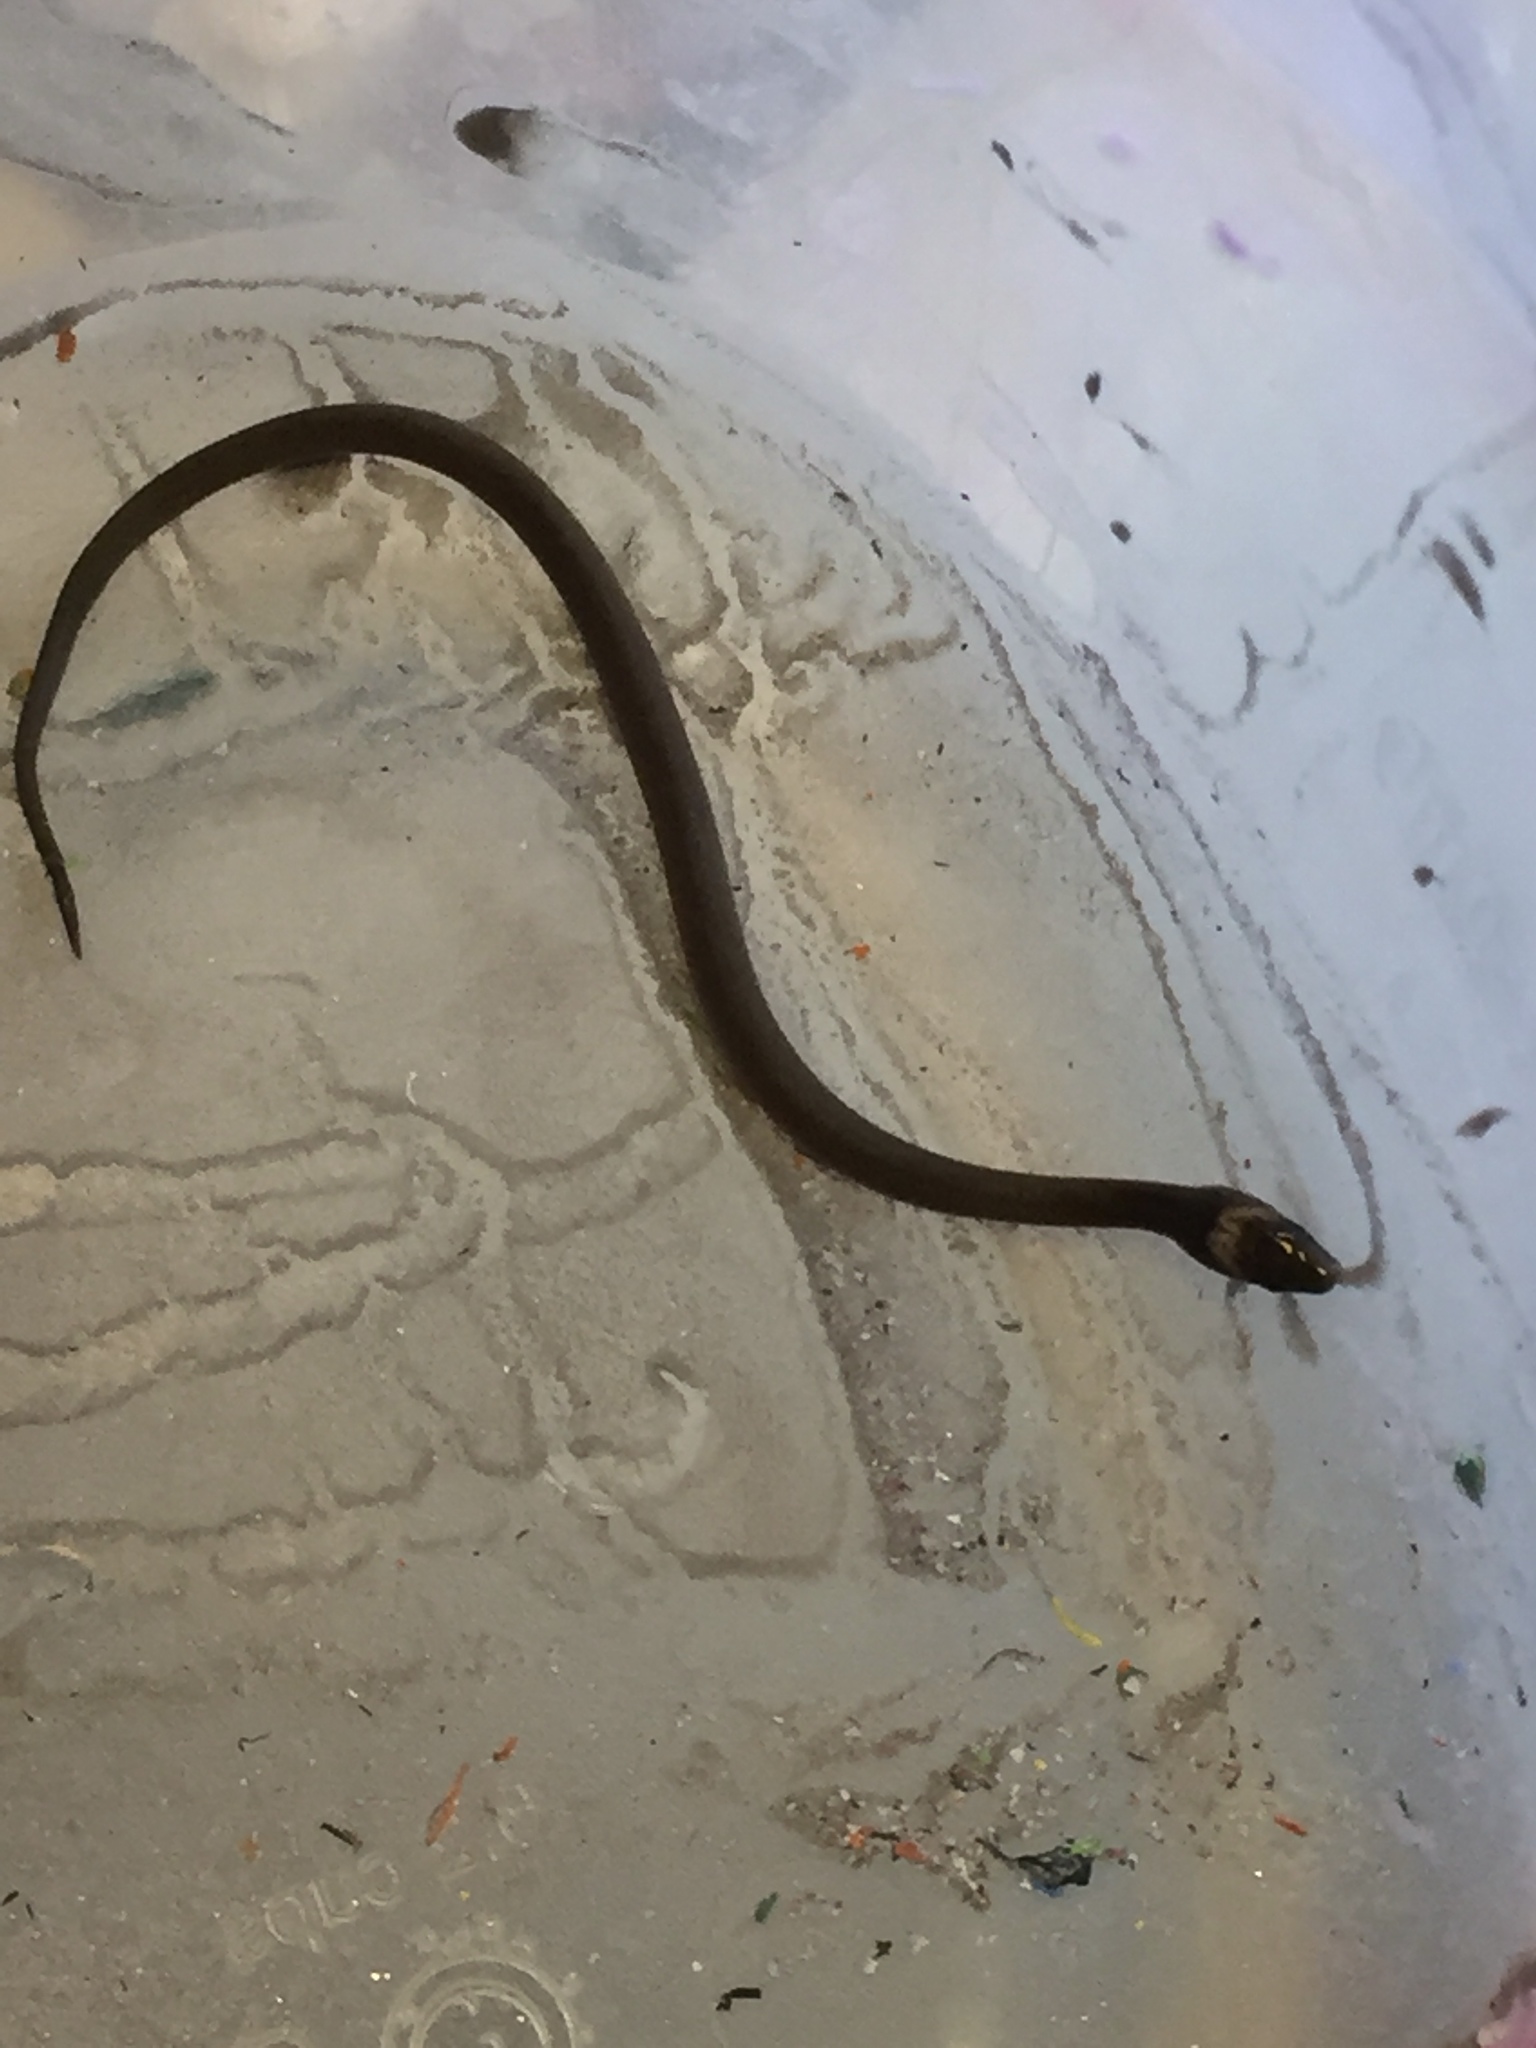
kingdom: Animalia
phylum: Chordata
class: Squamata
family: Colubridae
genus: Haldea
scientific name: Haldea striatula
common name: Rough earth snake
